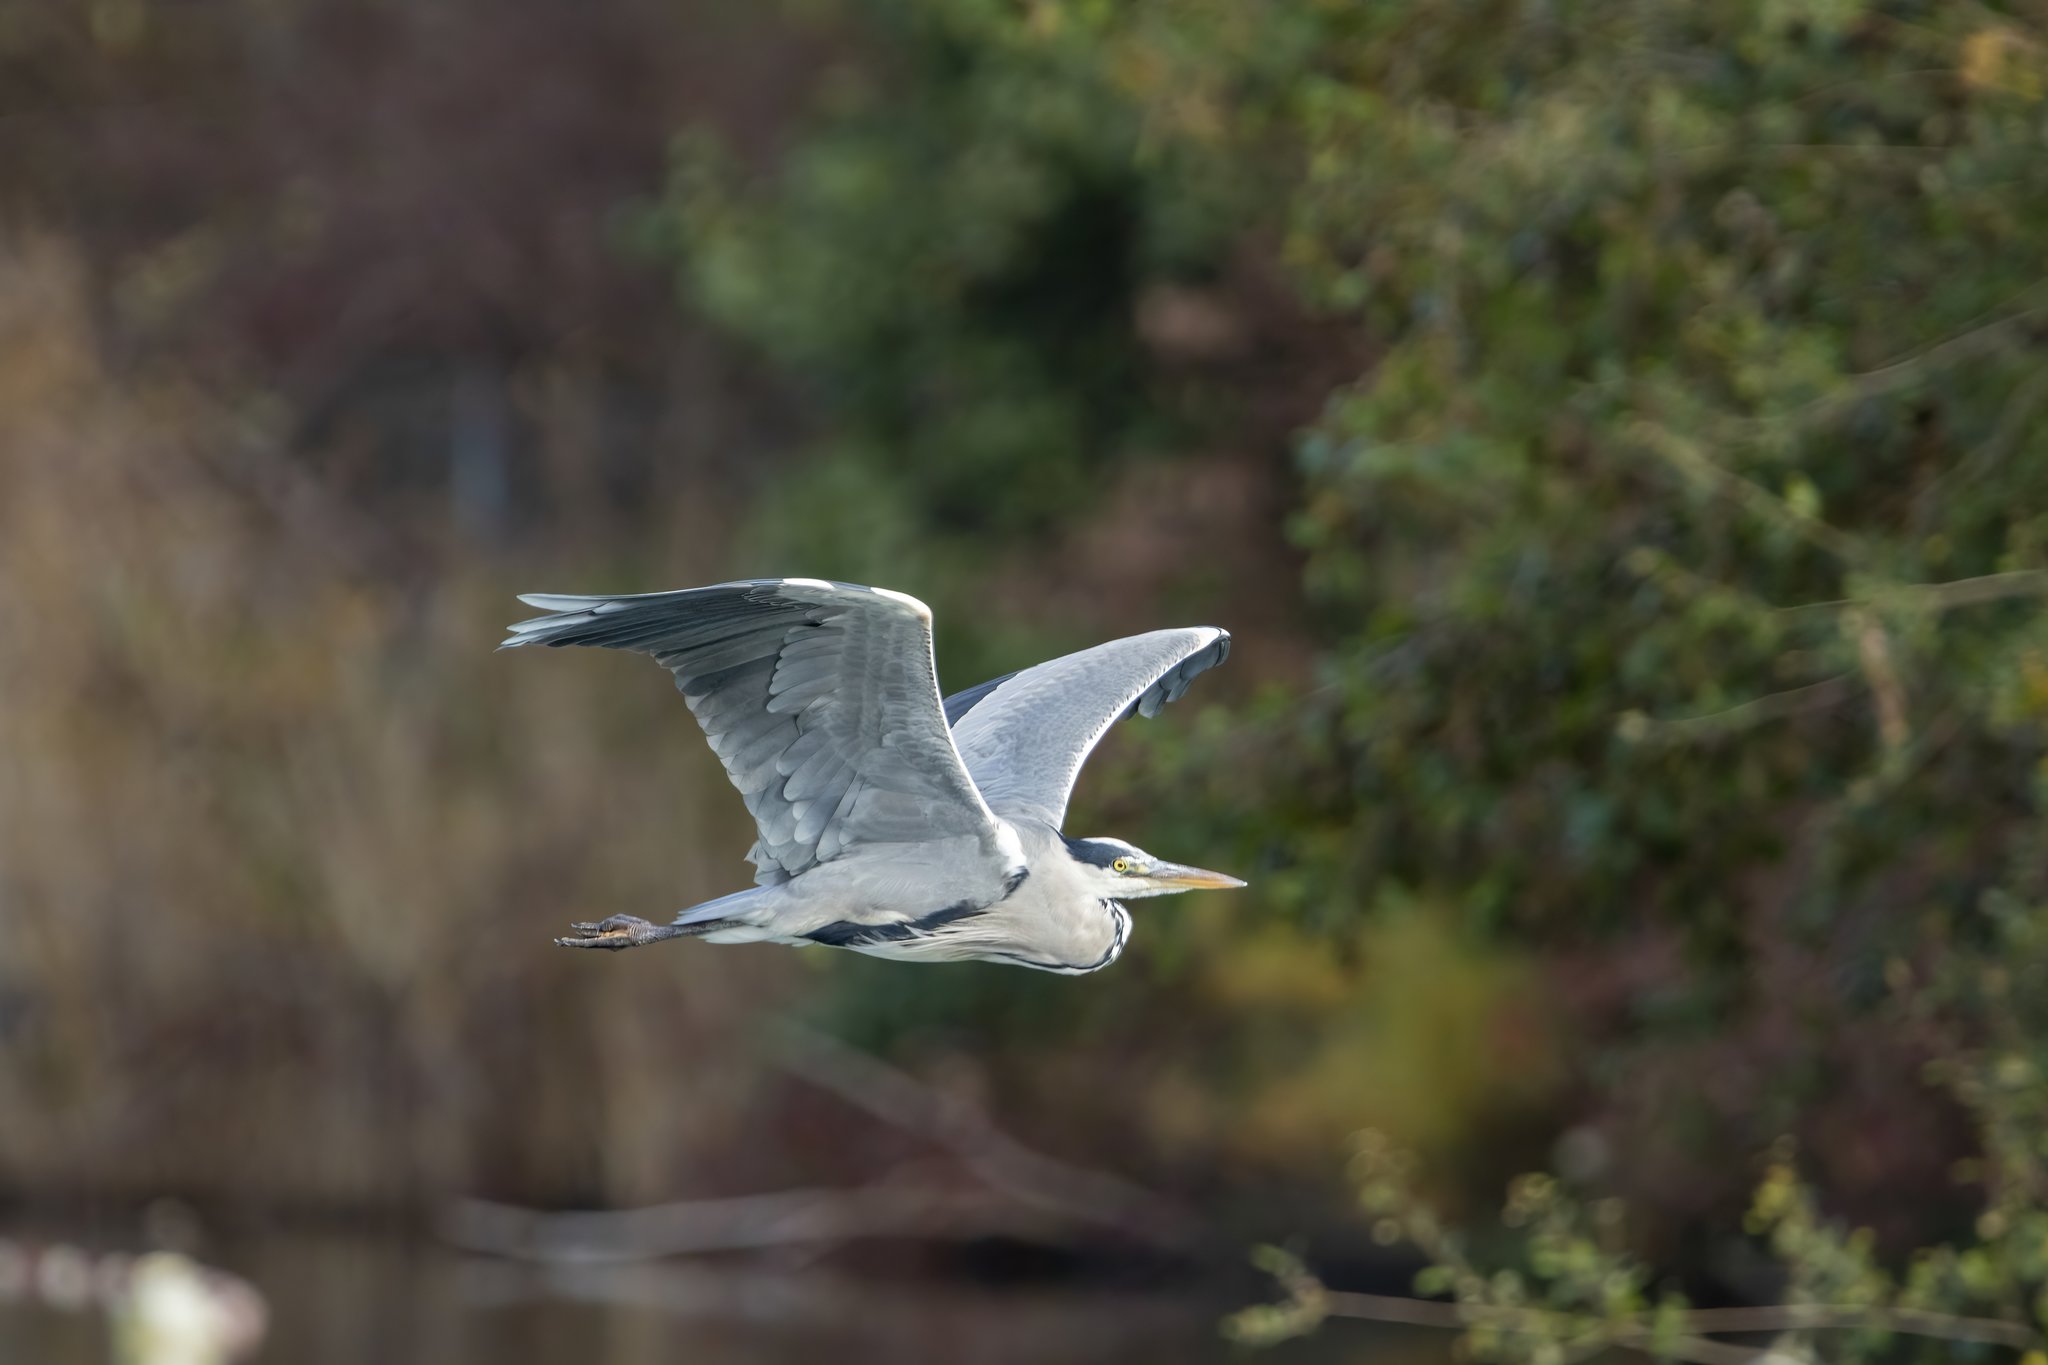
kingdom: Animalia
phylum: Chordata
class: Aves
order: Pelecaniformes
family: Ardeidae
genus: Ardea
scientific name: Ardea cinerea
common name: Grey heron
